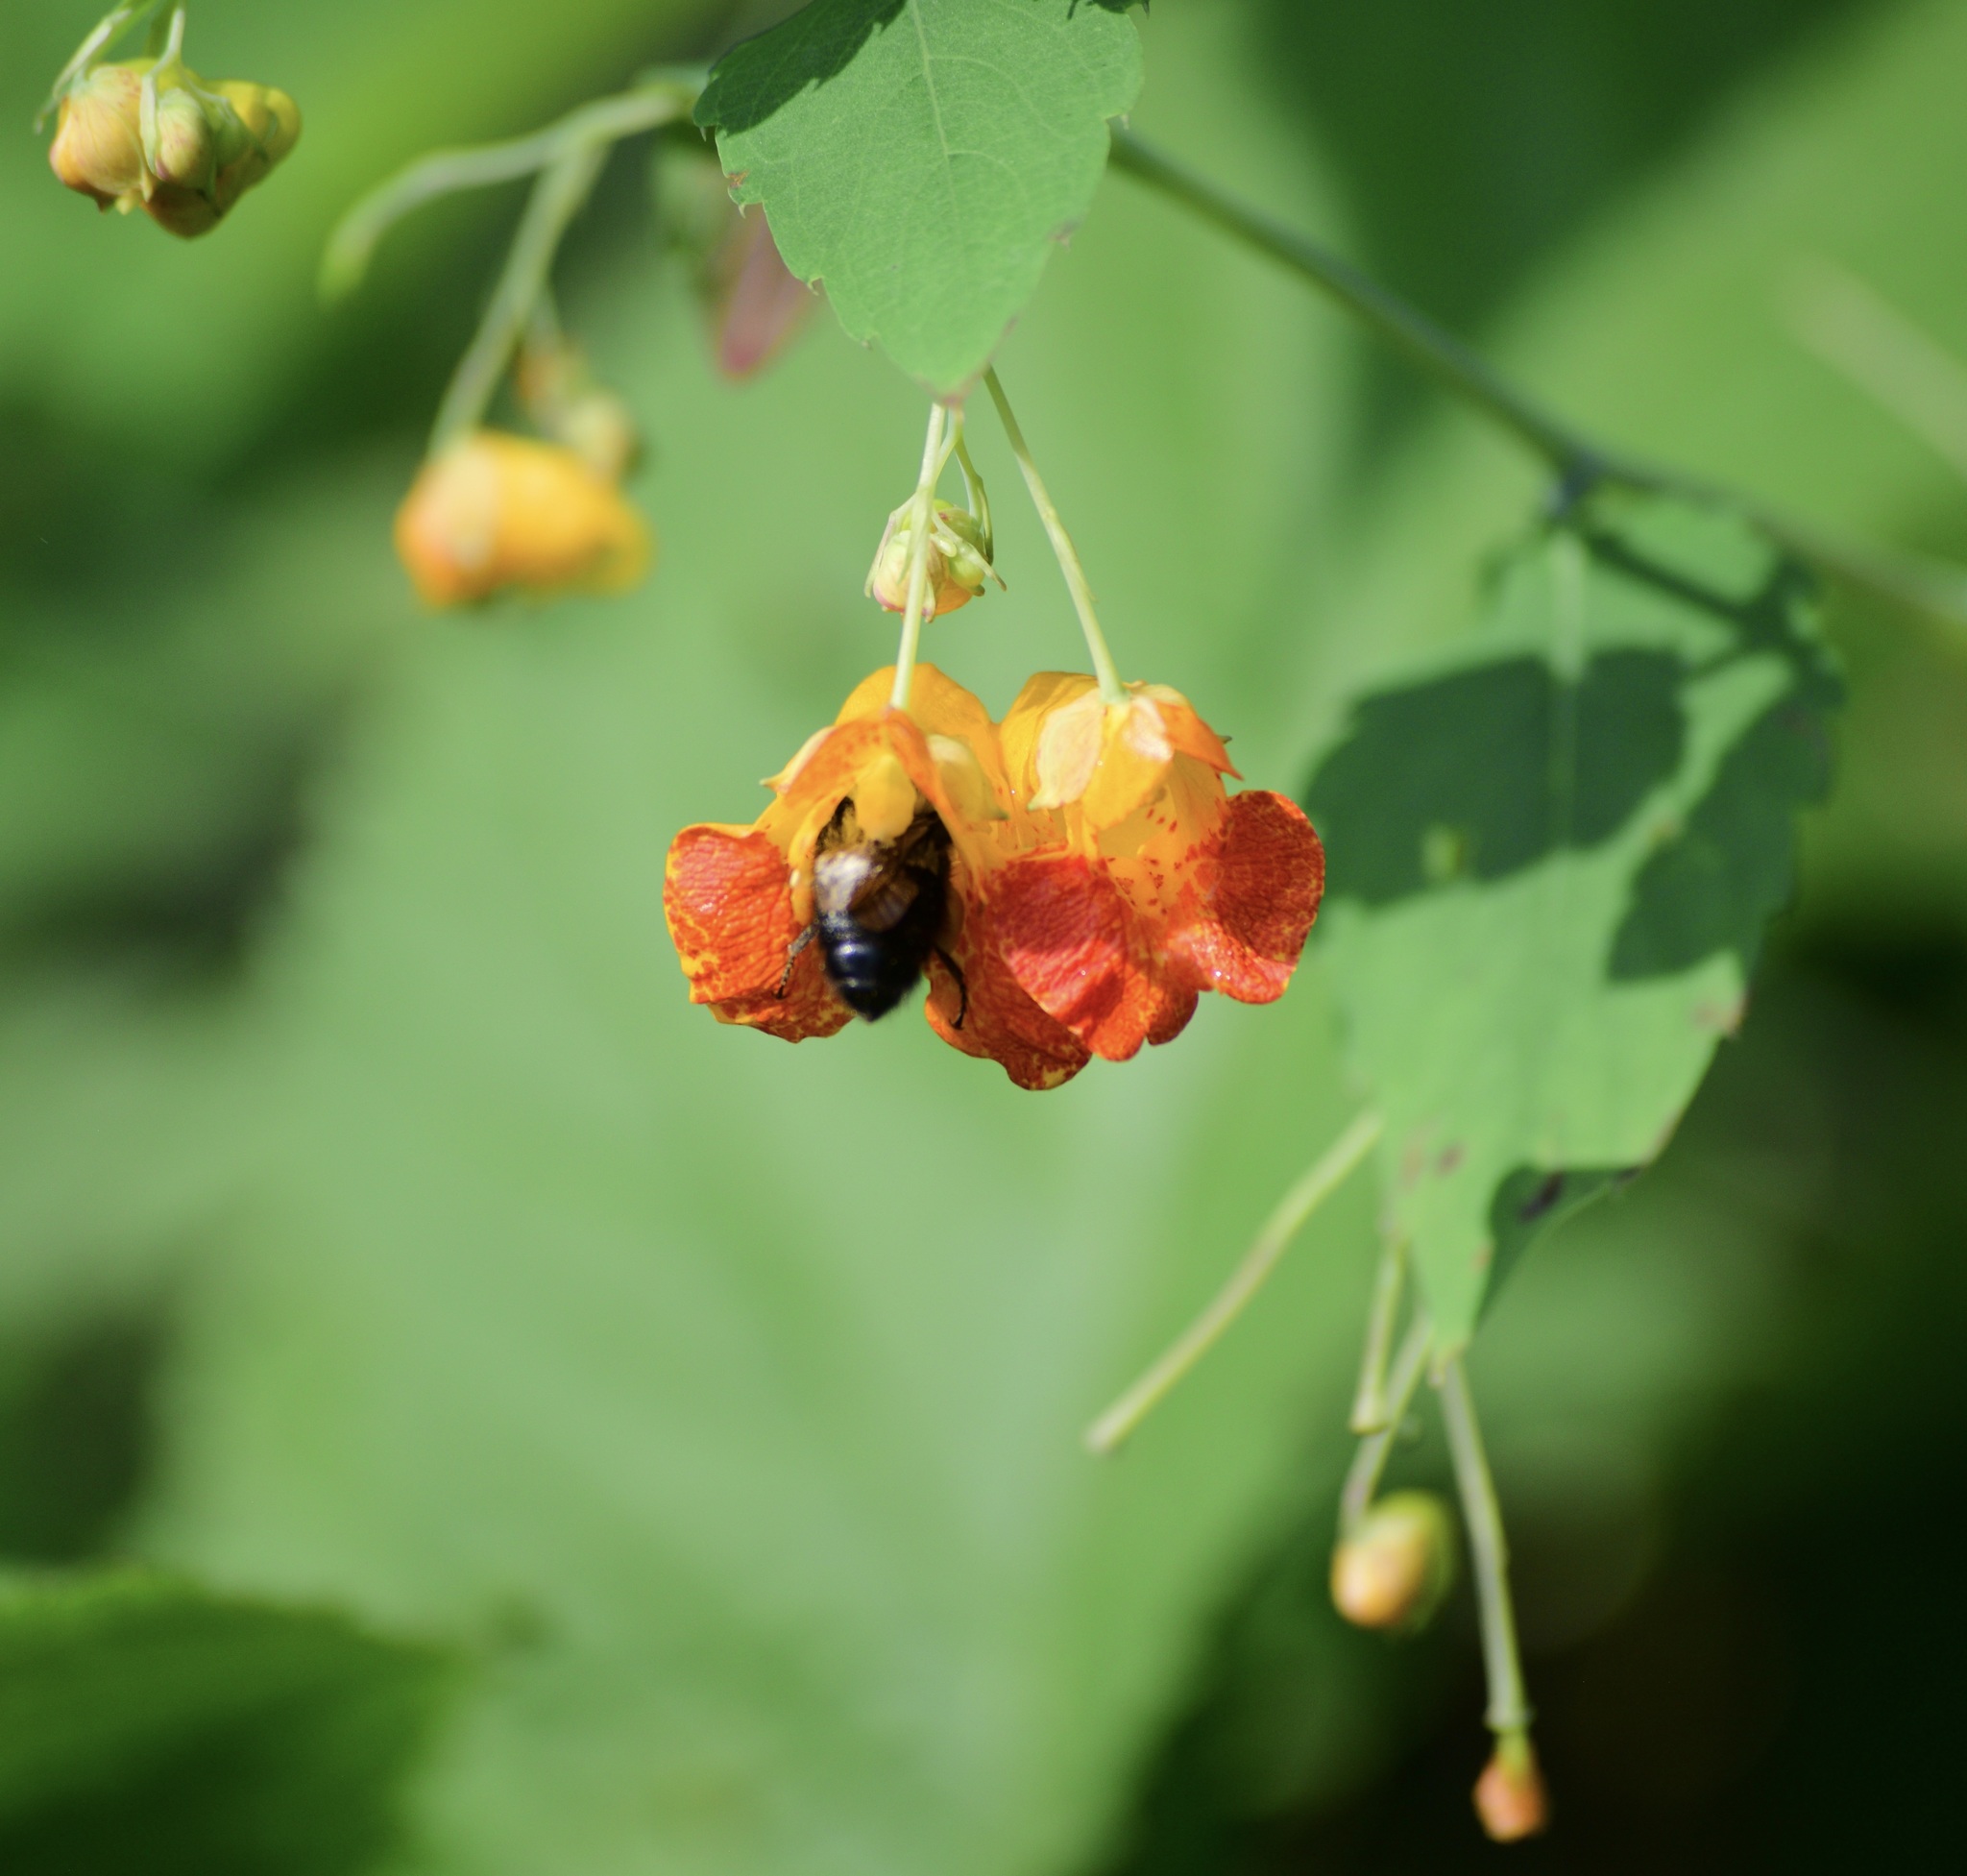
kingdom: Animalia
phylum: Arthropoda
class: Insecta
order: Hymenoptera
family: Apidae
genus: Bombus
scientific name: Bombus
